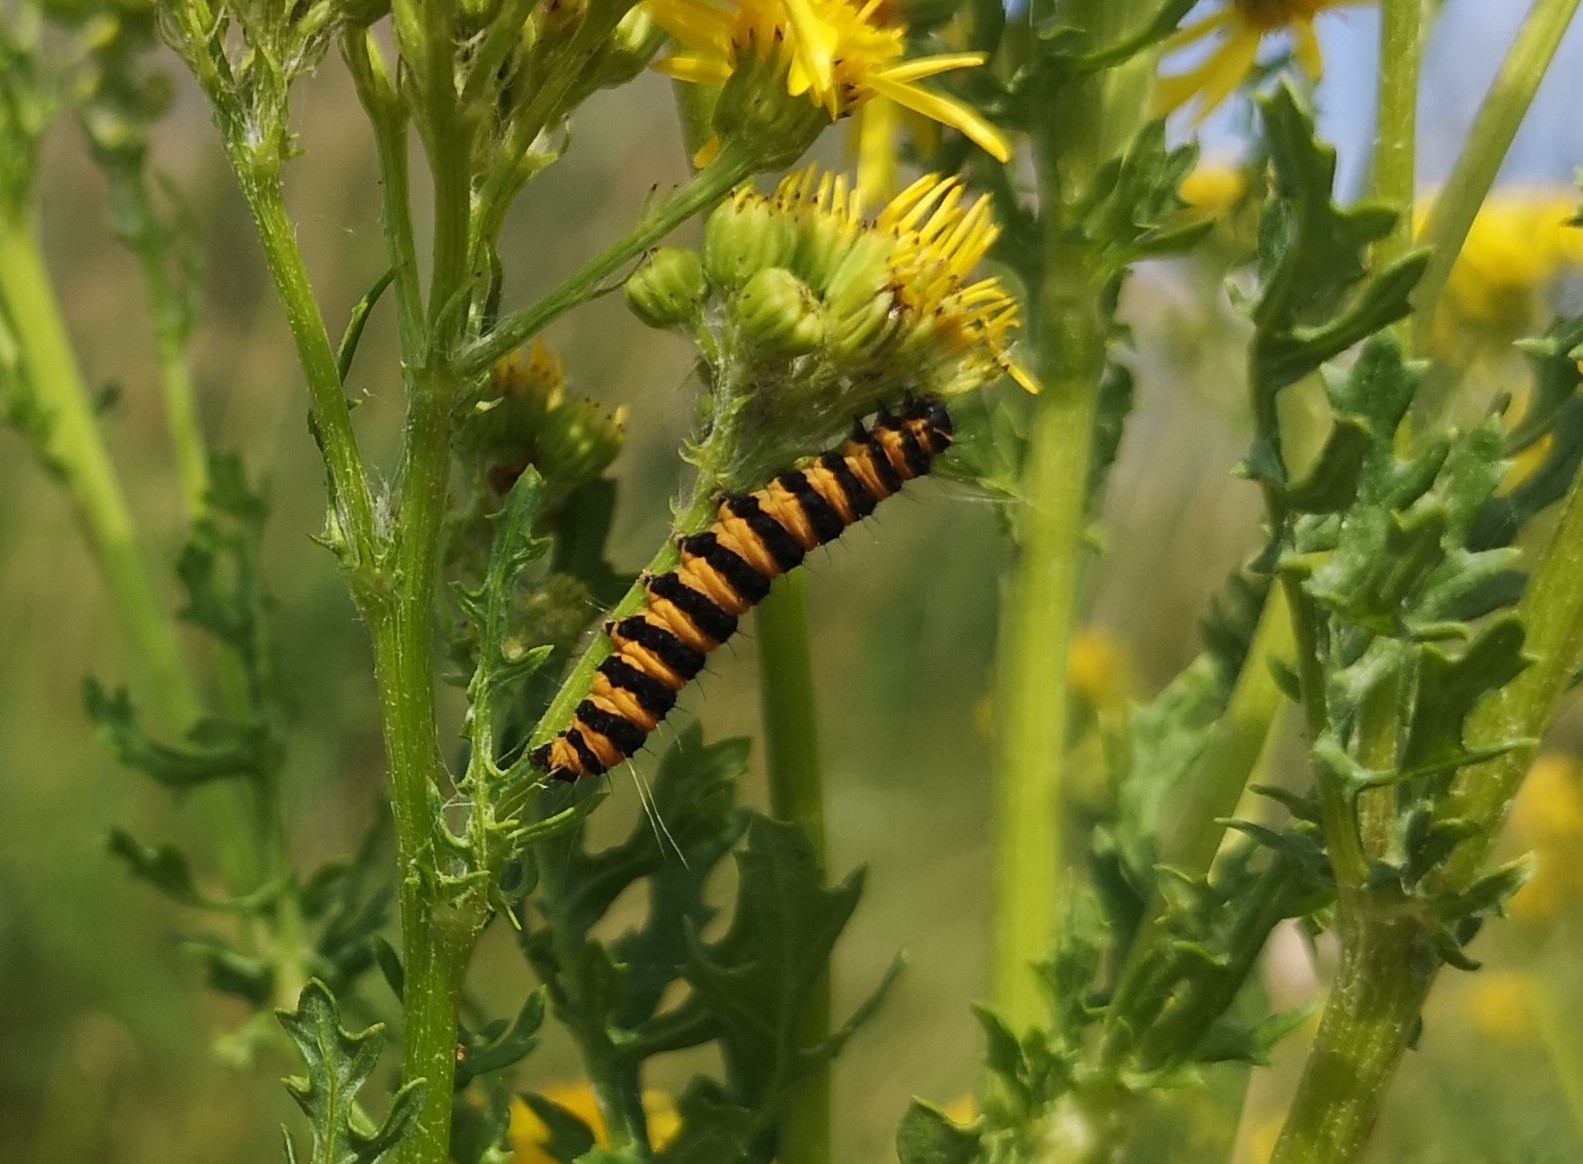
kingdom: Animalia
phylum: Arthropoda
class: Insecta
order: Lepidoptera
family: Erebidae
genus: Tyria
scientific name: Tyria jacobaeae
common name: Cinnabar
